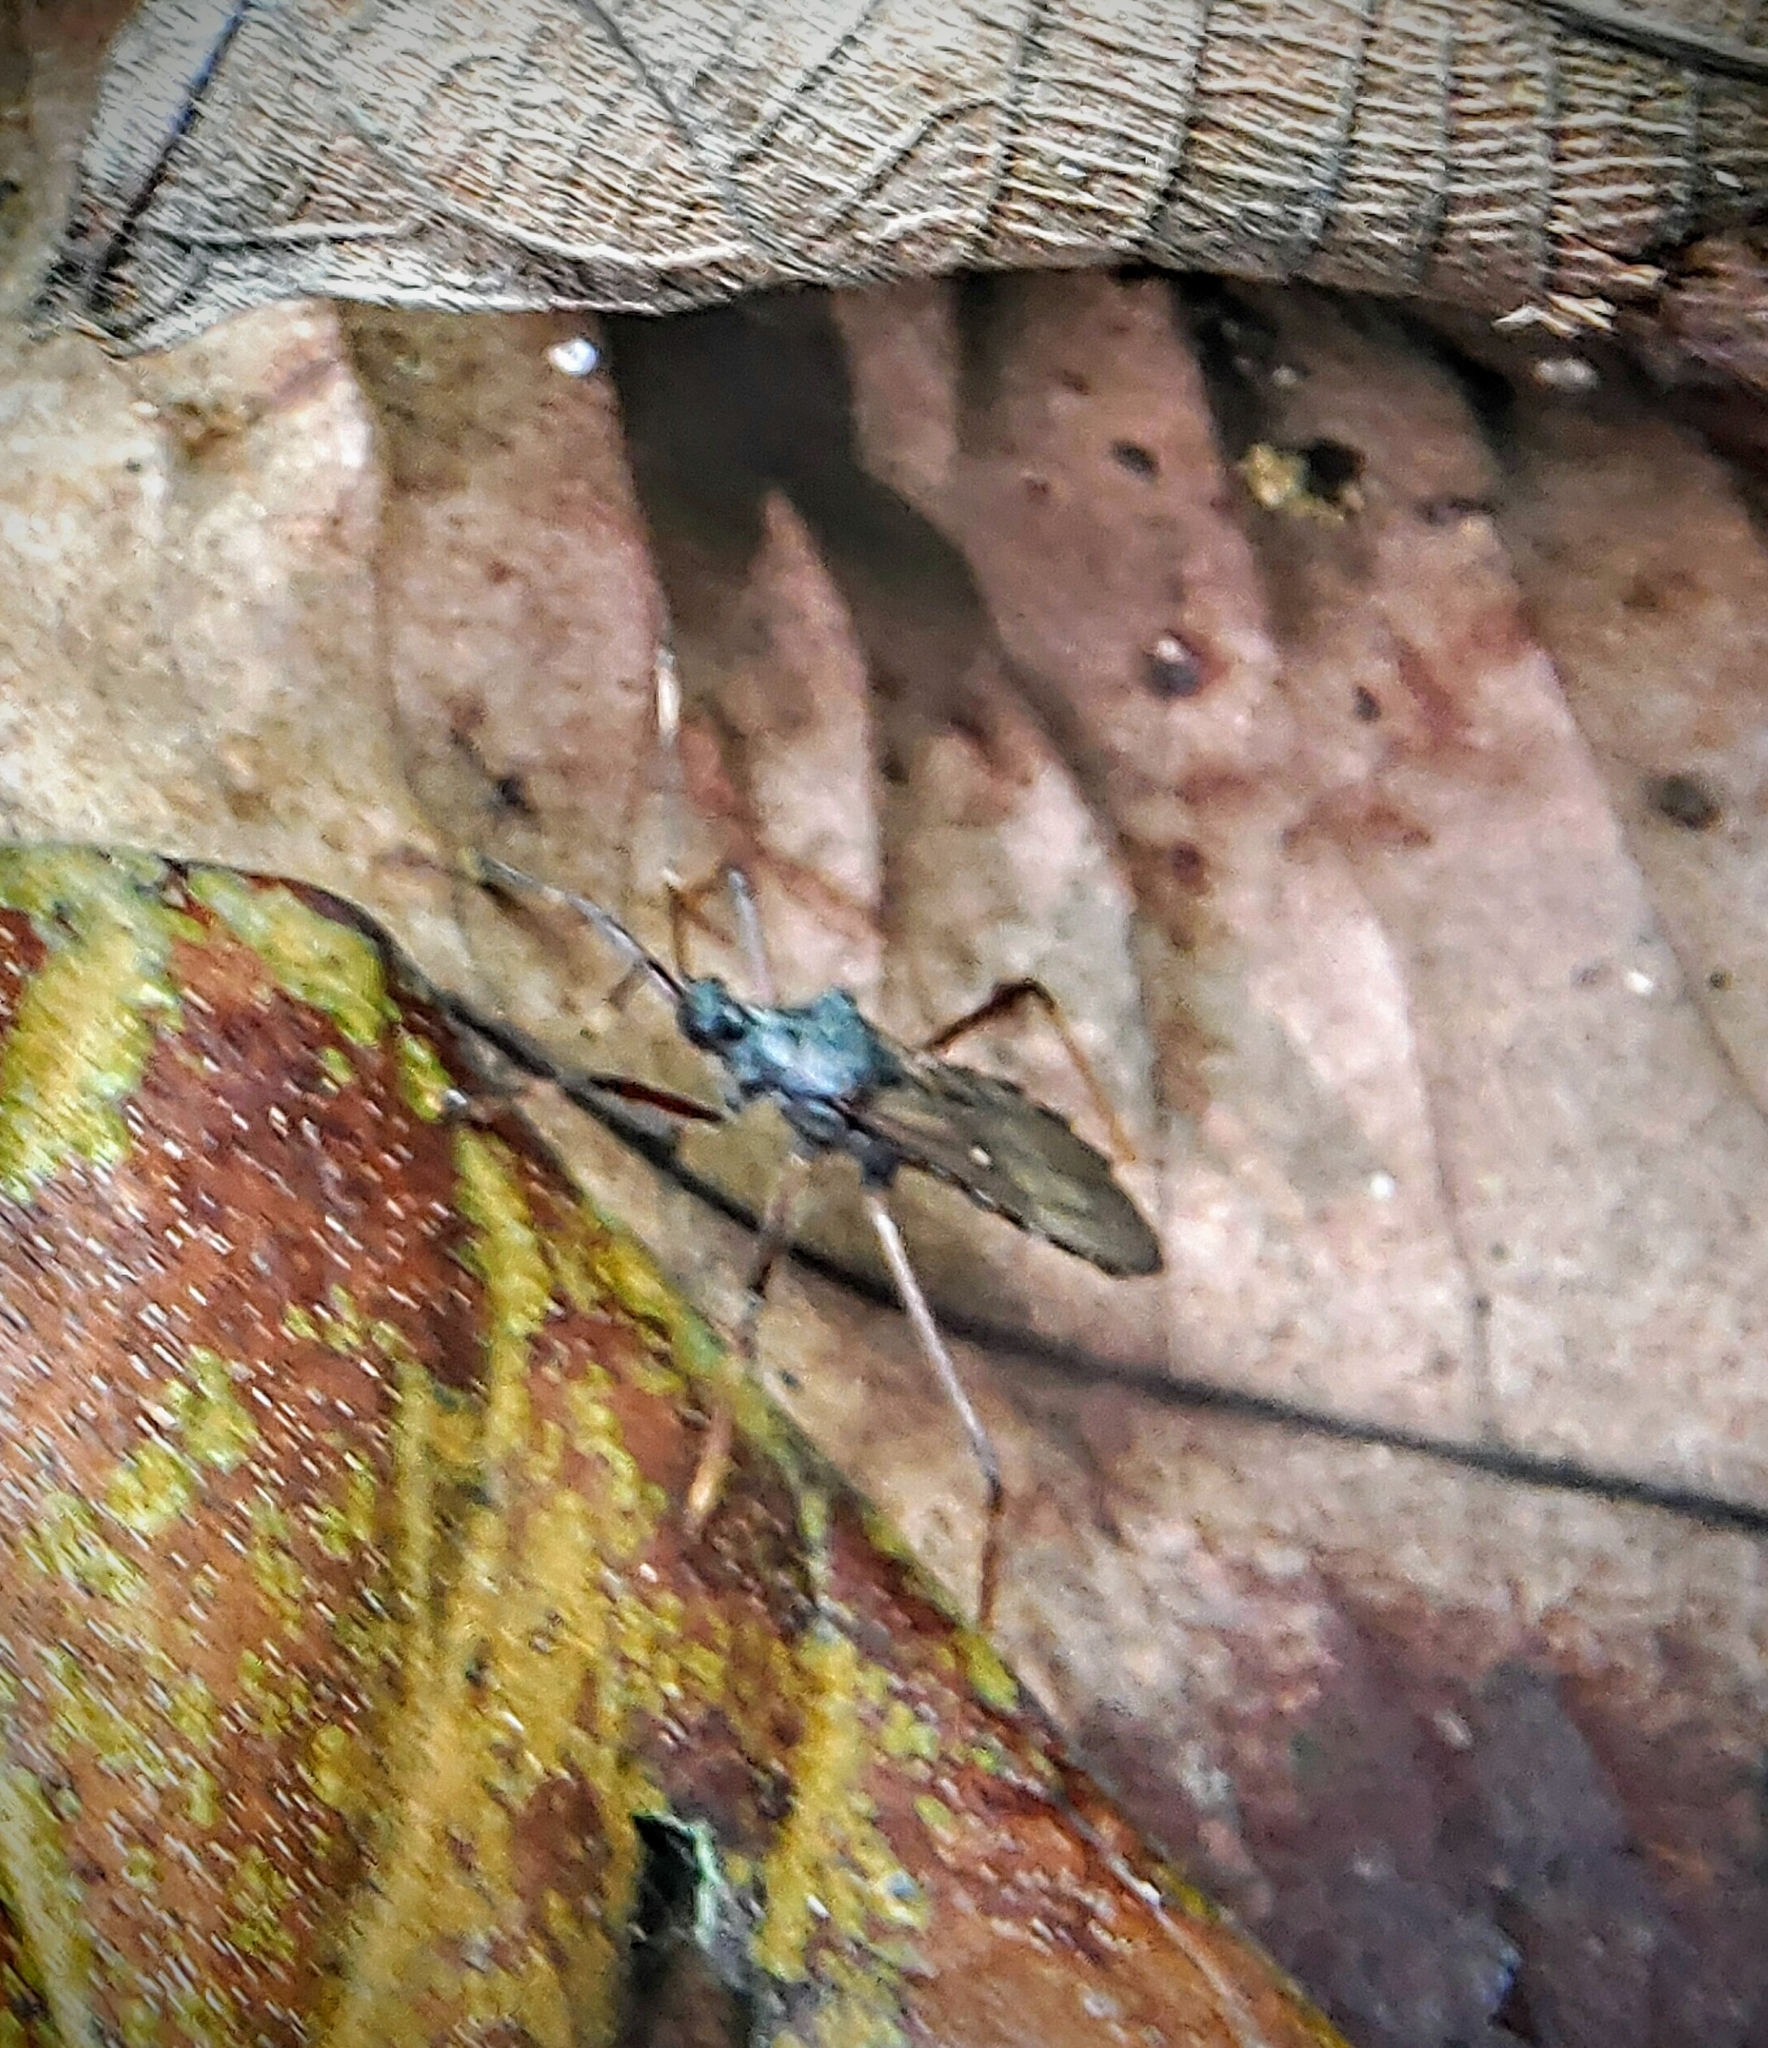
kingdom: Animalia
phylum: Arthropoda
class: Insecta
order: Hemiptera
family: Reduviidae
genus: Valentia
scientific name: Valentia apetala
